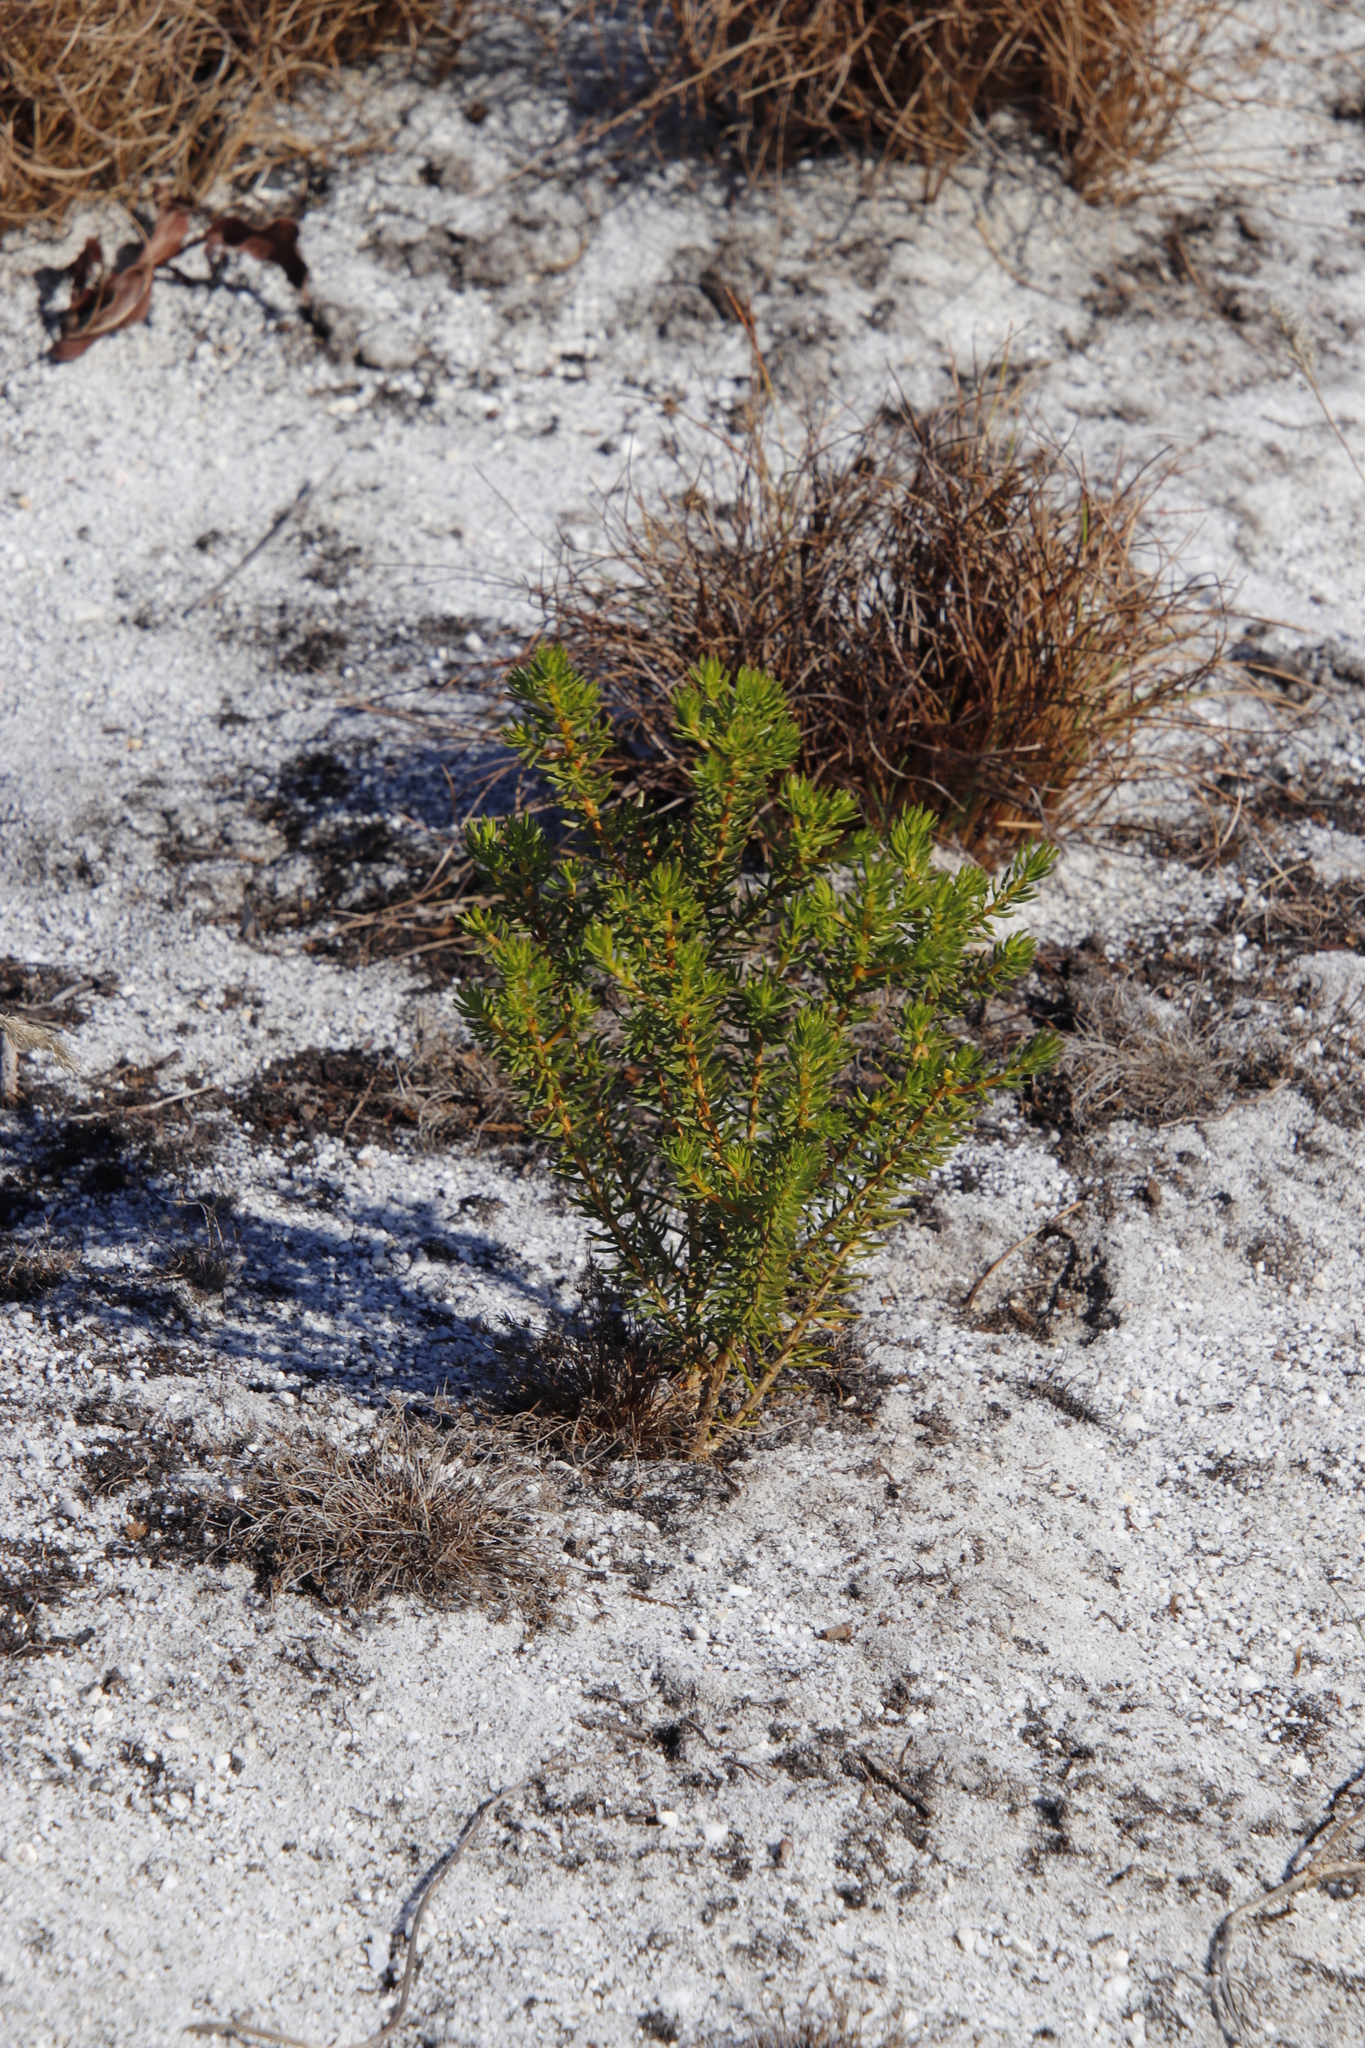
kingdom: Plantae
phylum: Tracheophyta
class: Magnoliopsida
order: Fabales
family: Fabaceae
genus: Aspalathus
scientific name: Aspalathus callosa
